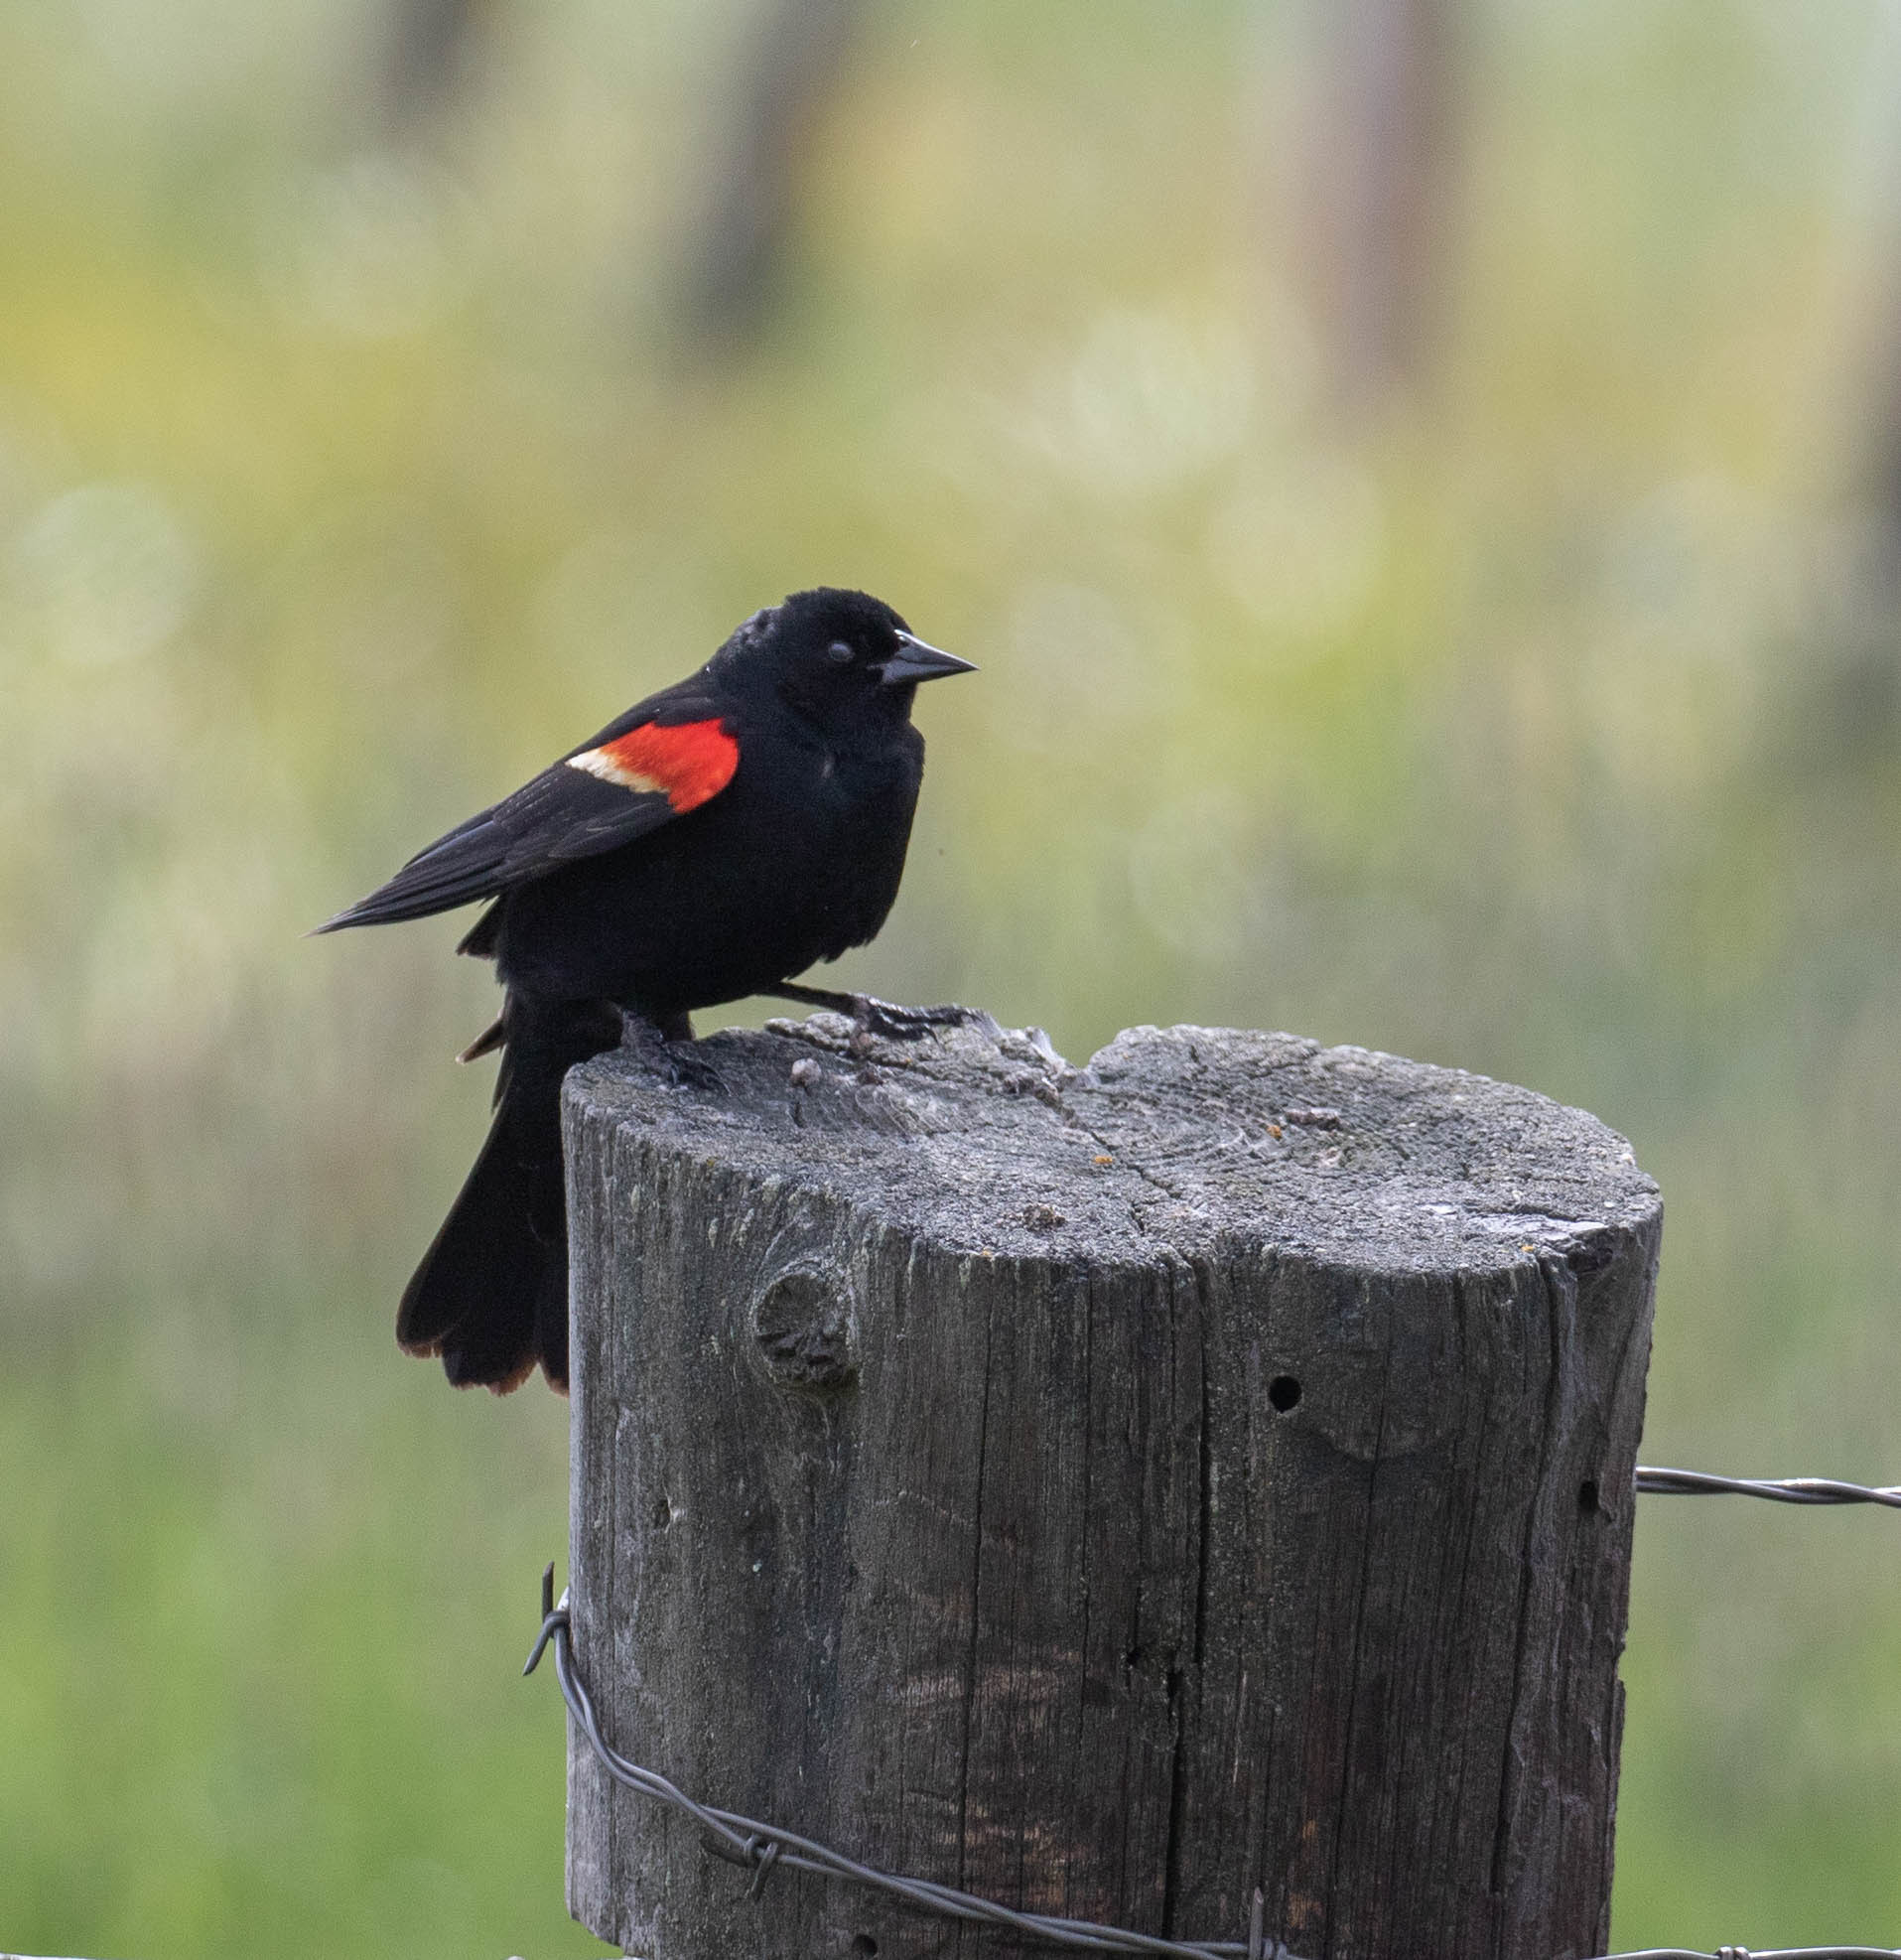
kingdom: Animalia
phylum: Chordata
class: Aves
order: Passeriformes
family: Icteridae
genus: Agelaius
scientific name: Agelaius phoeniceus
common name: Red-winged blackbird
